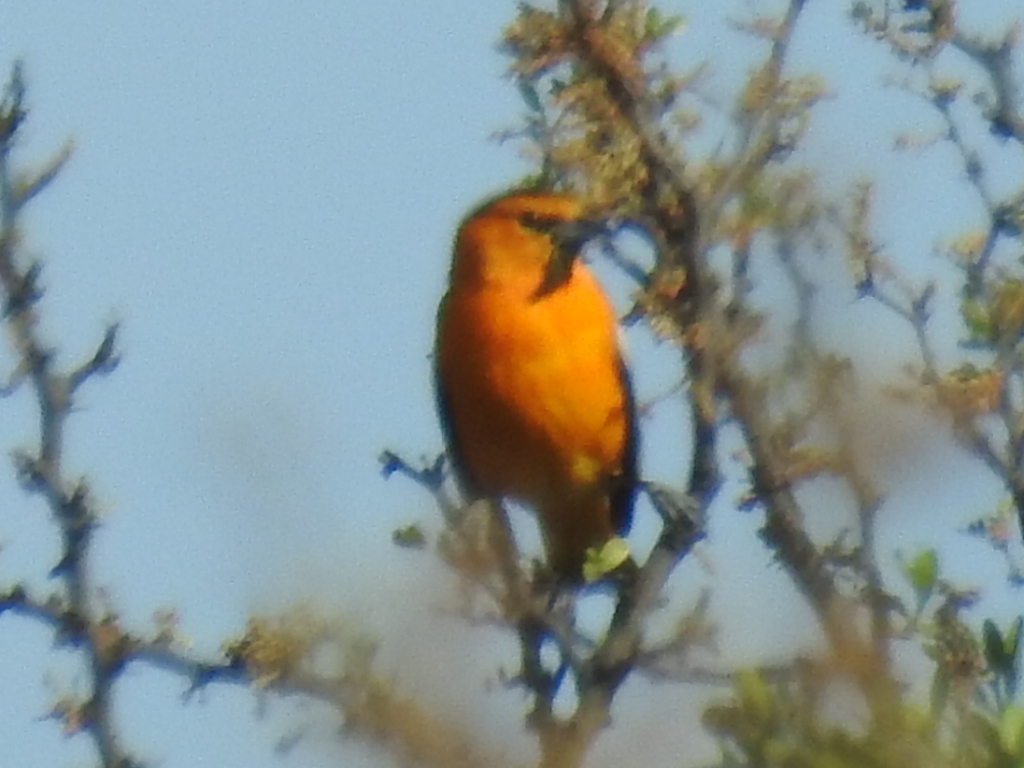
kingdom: Animalia
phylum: Chordata
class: Aves
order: Passeriformes
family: Icteridae
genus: Icterus
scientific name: Icterus bullockii
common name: Bullock's oriole
